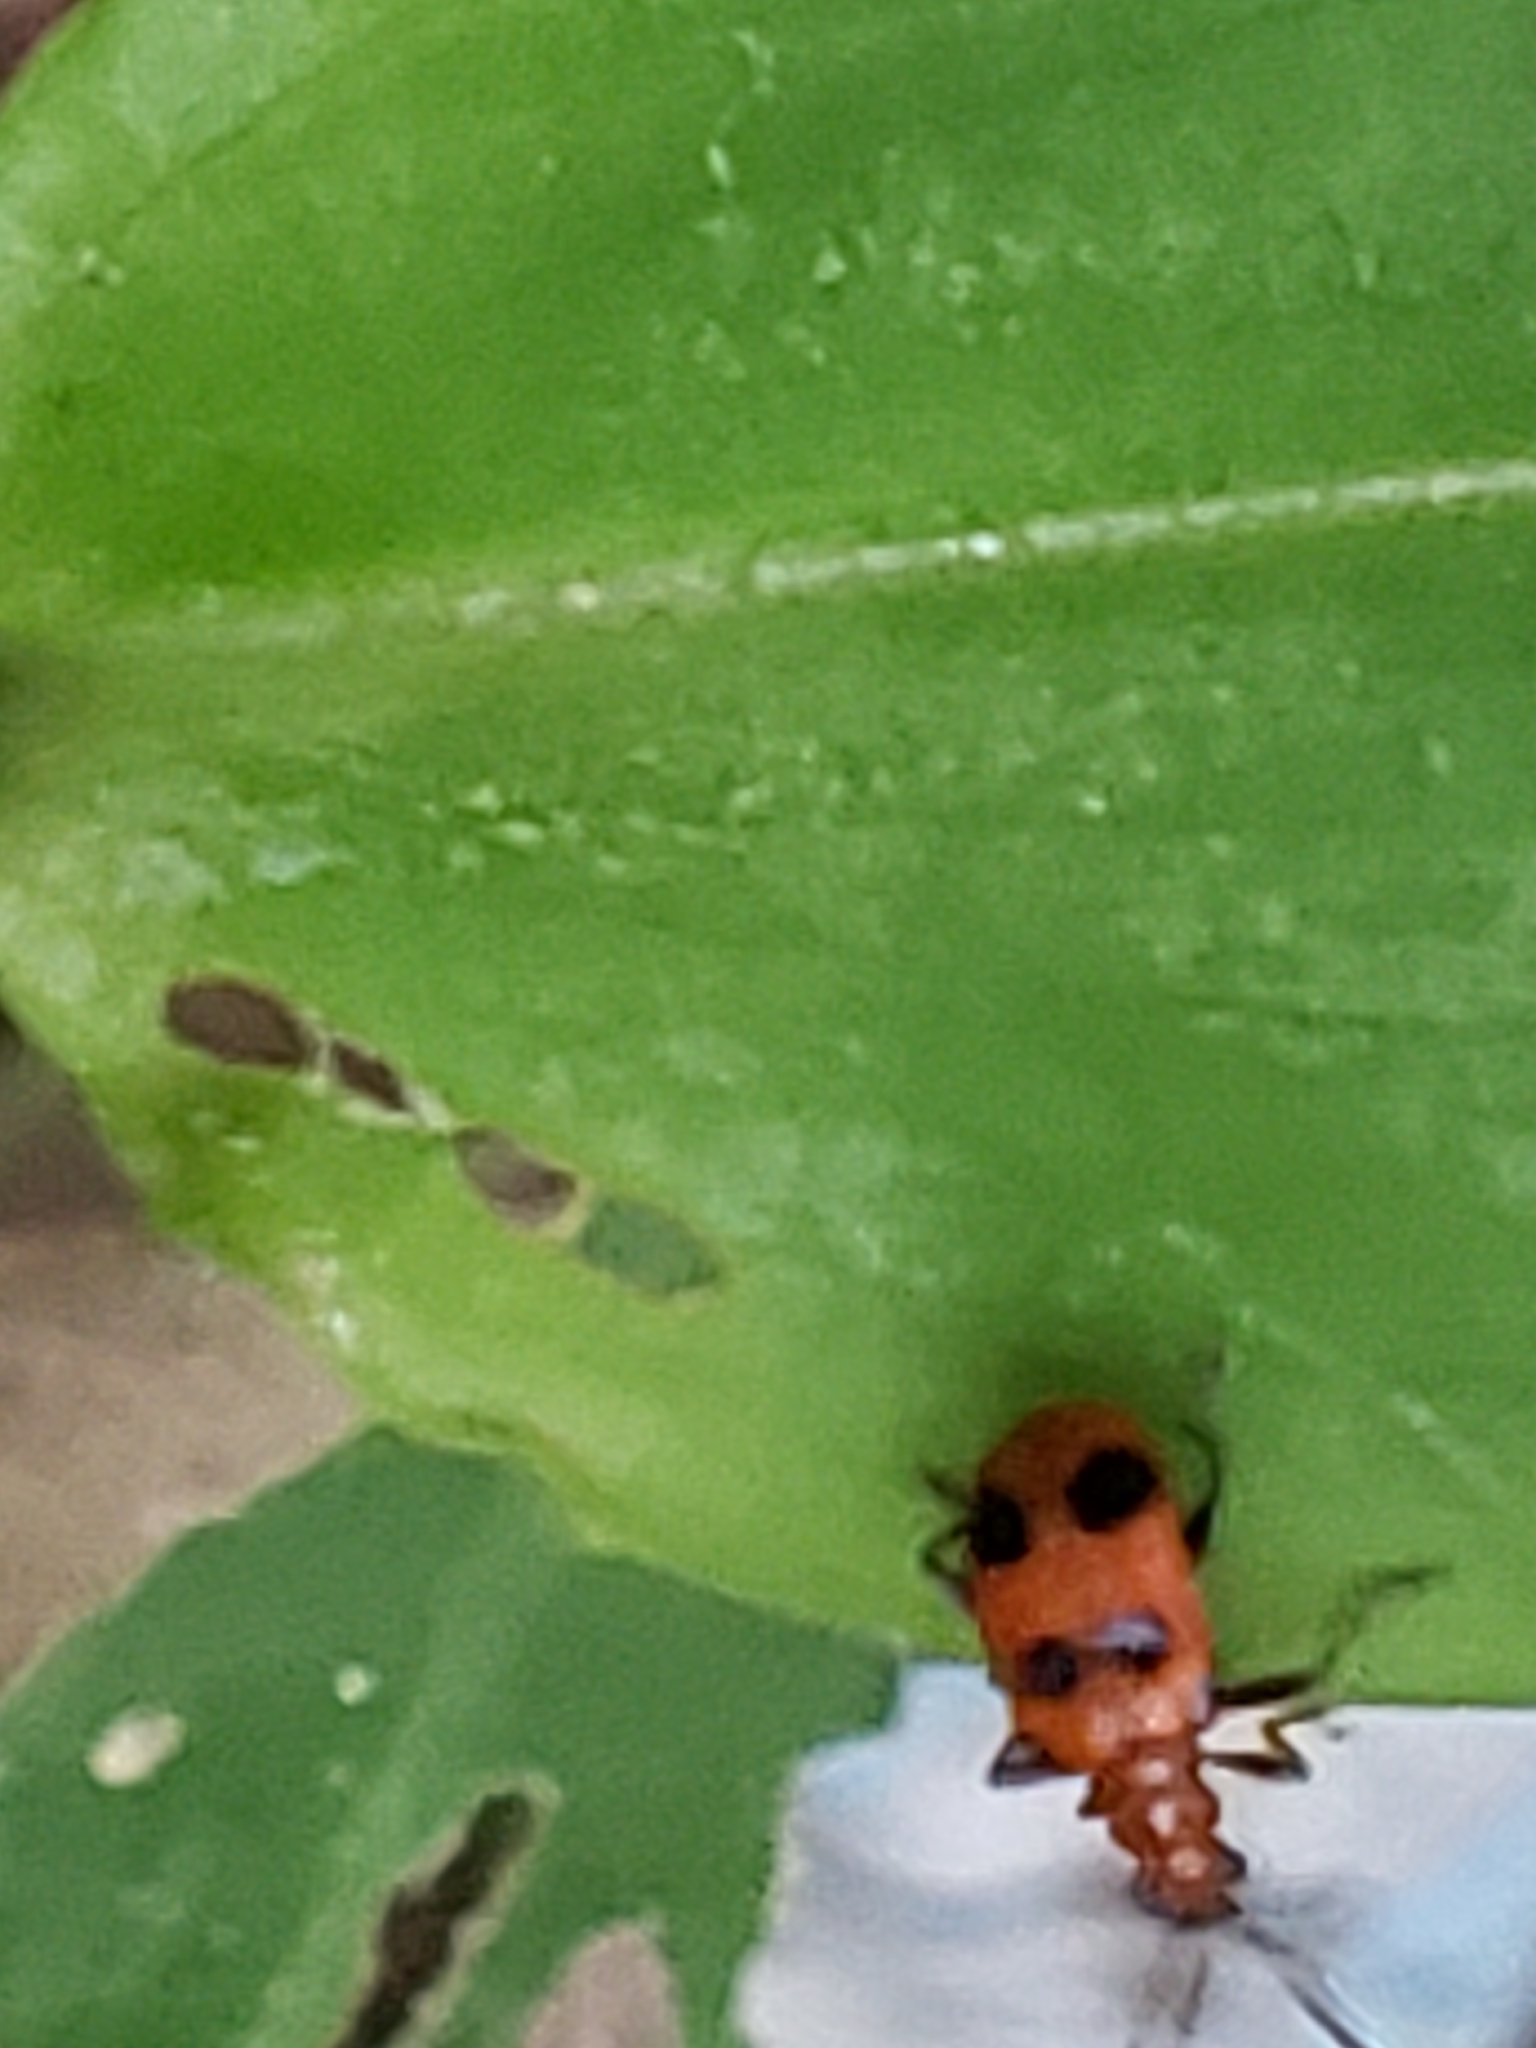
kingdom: Animalia
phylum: Arthropoda
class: Insecta
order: Coleoptera
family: Chrysomelidae
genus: Neolema
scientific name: Neolema sexpunctata
